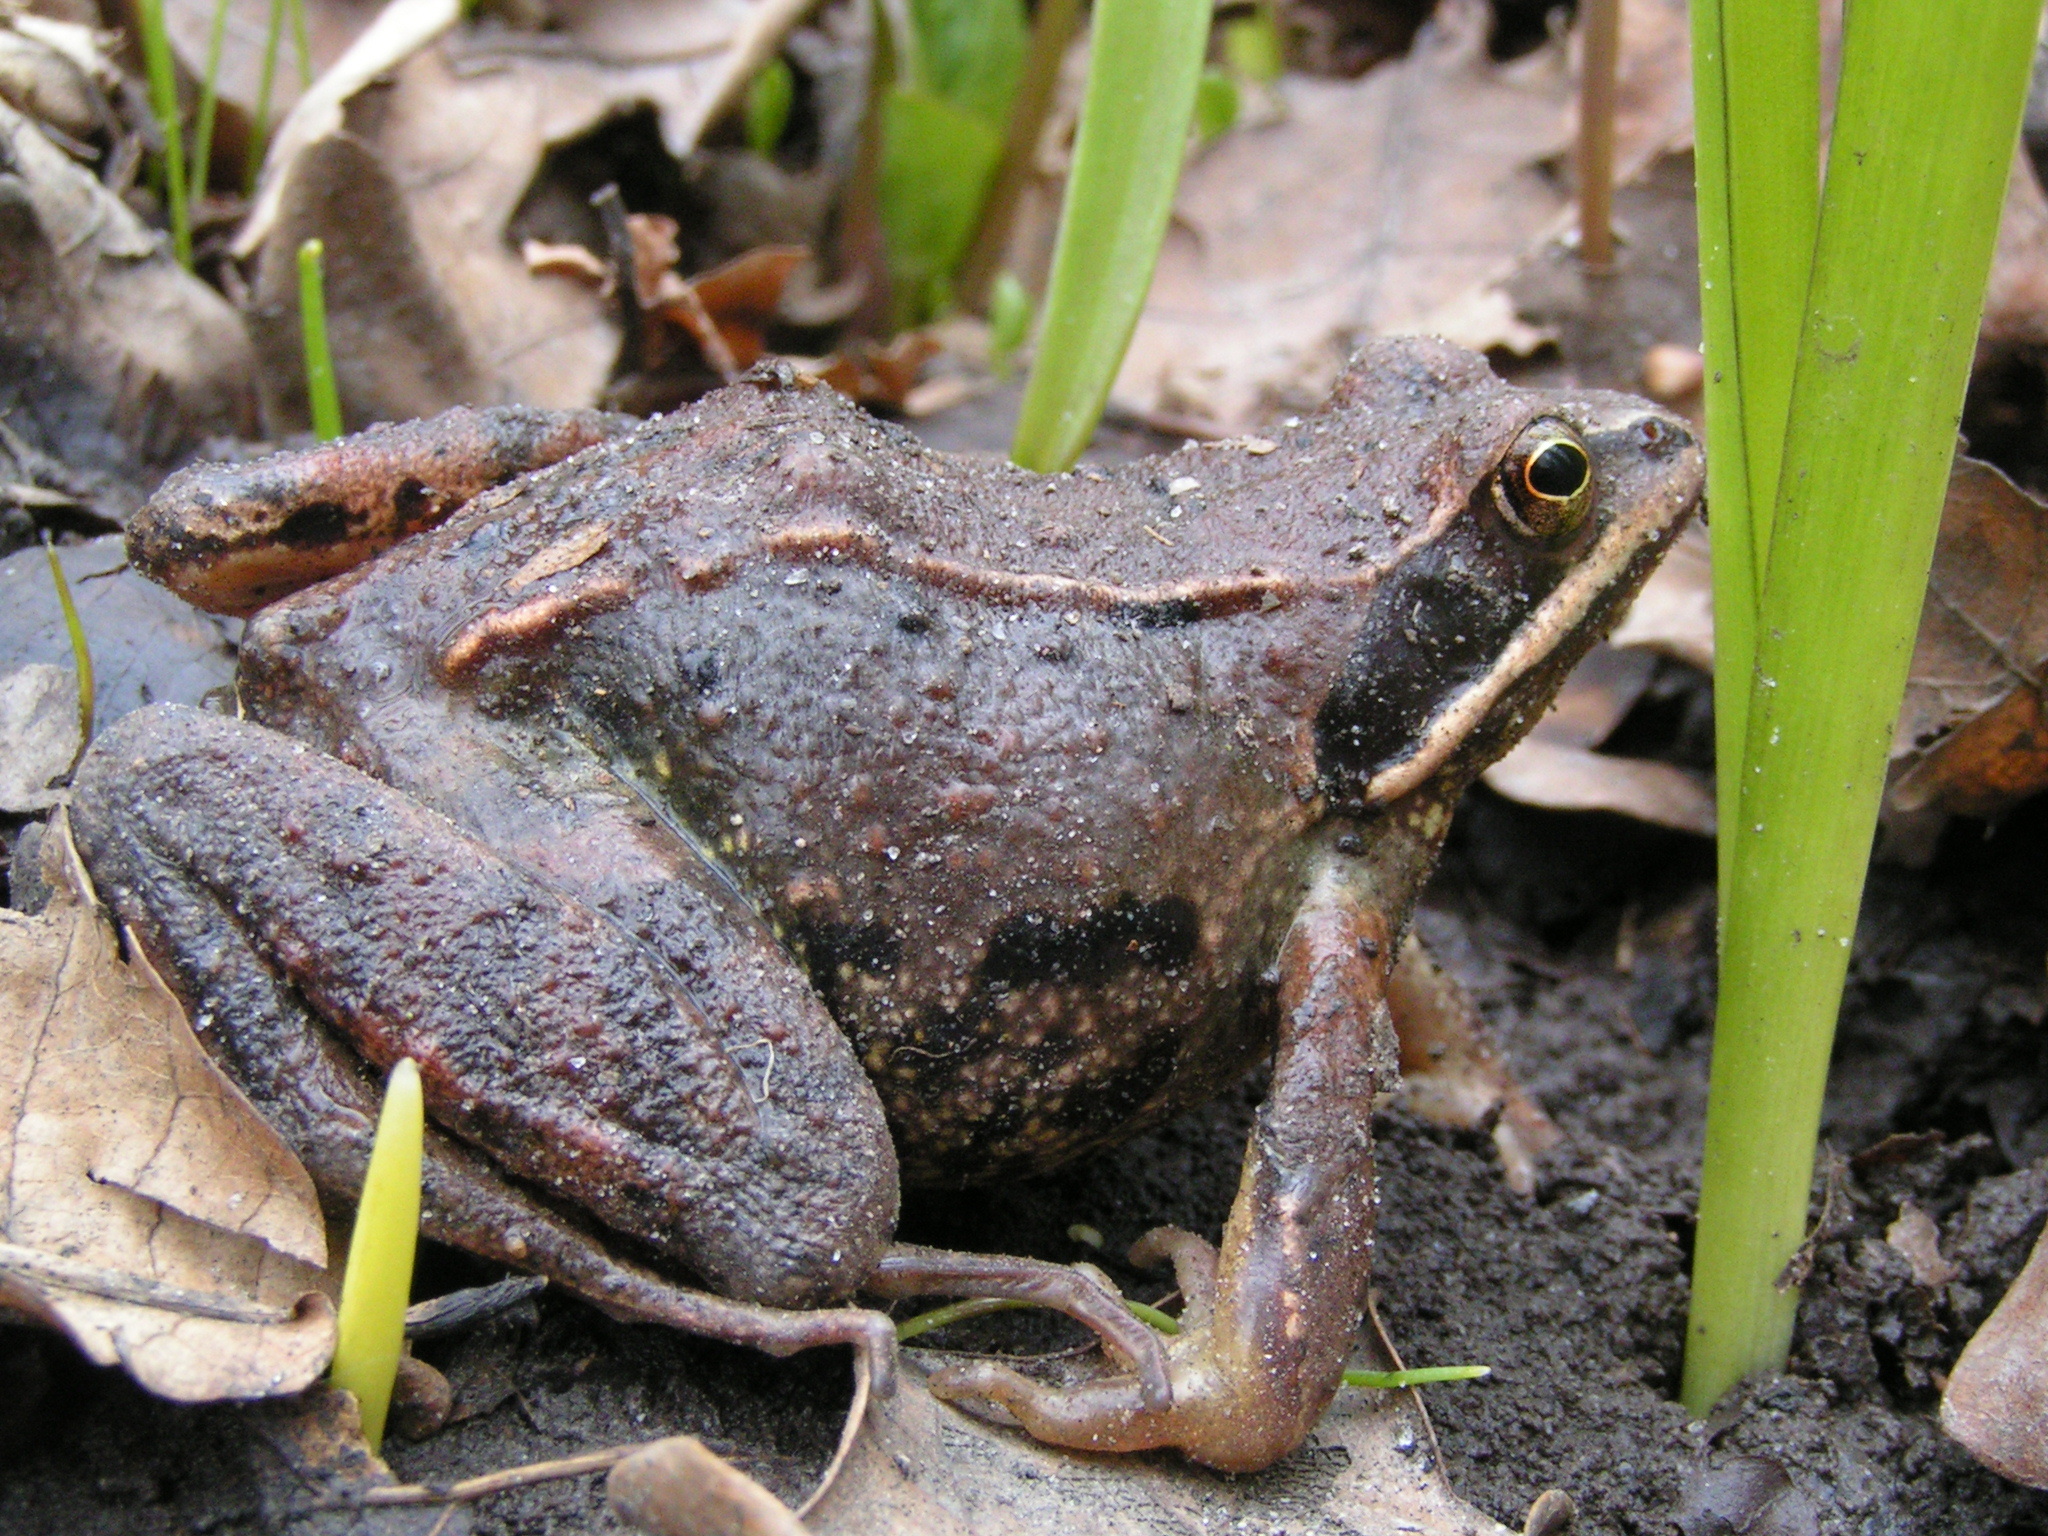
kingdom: Animalia
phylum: Chordata
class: Amphibia
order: Anura
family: Ranidae
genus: Rana
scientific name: Rana arvalis
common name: Moor frog
